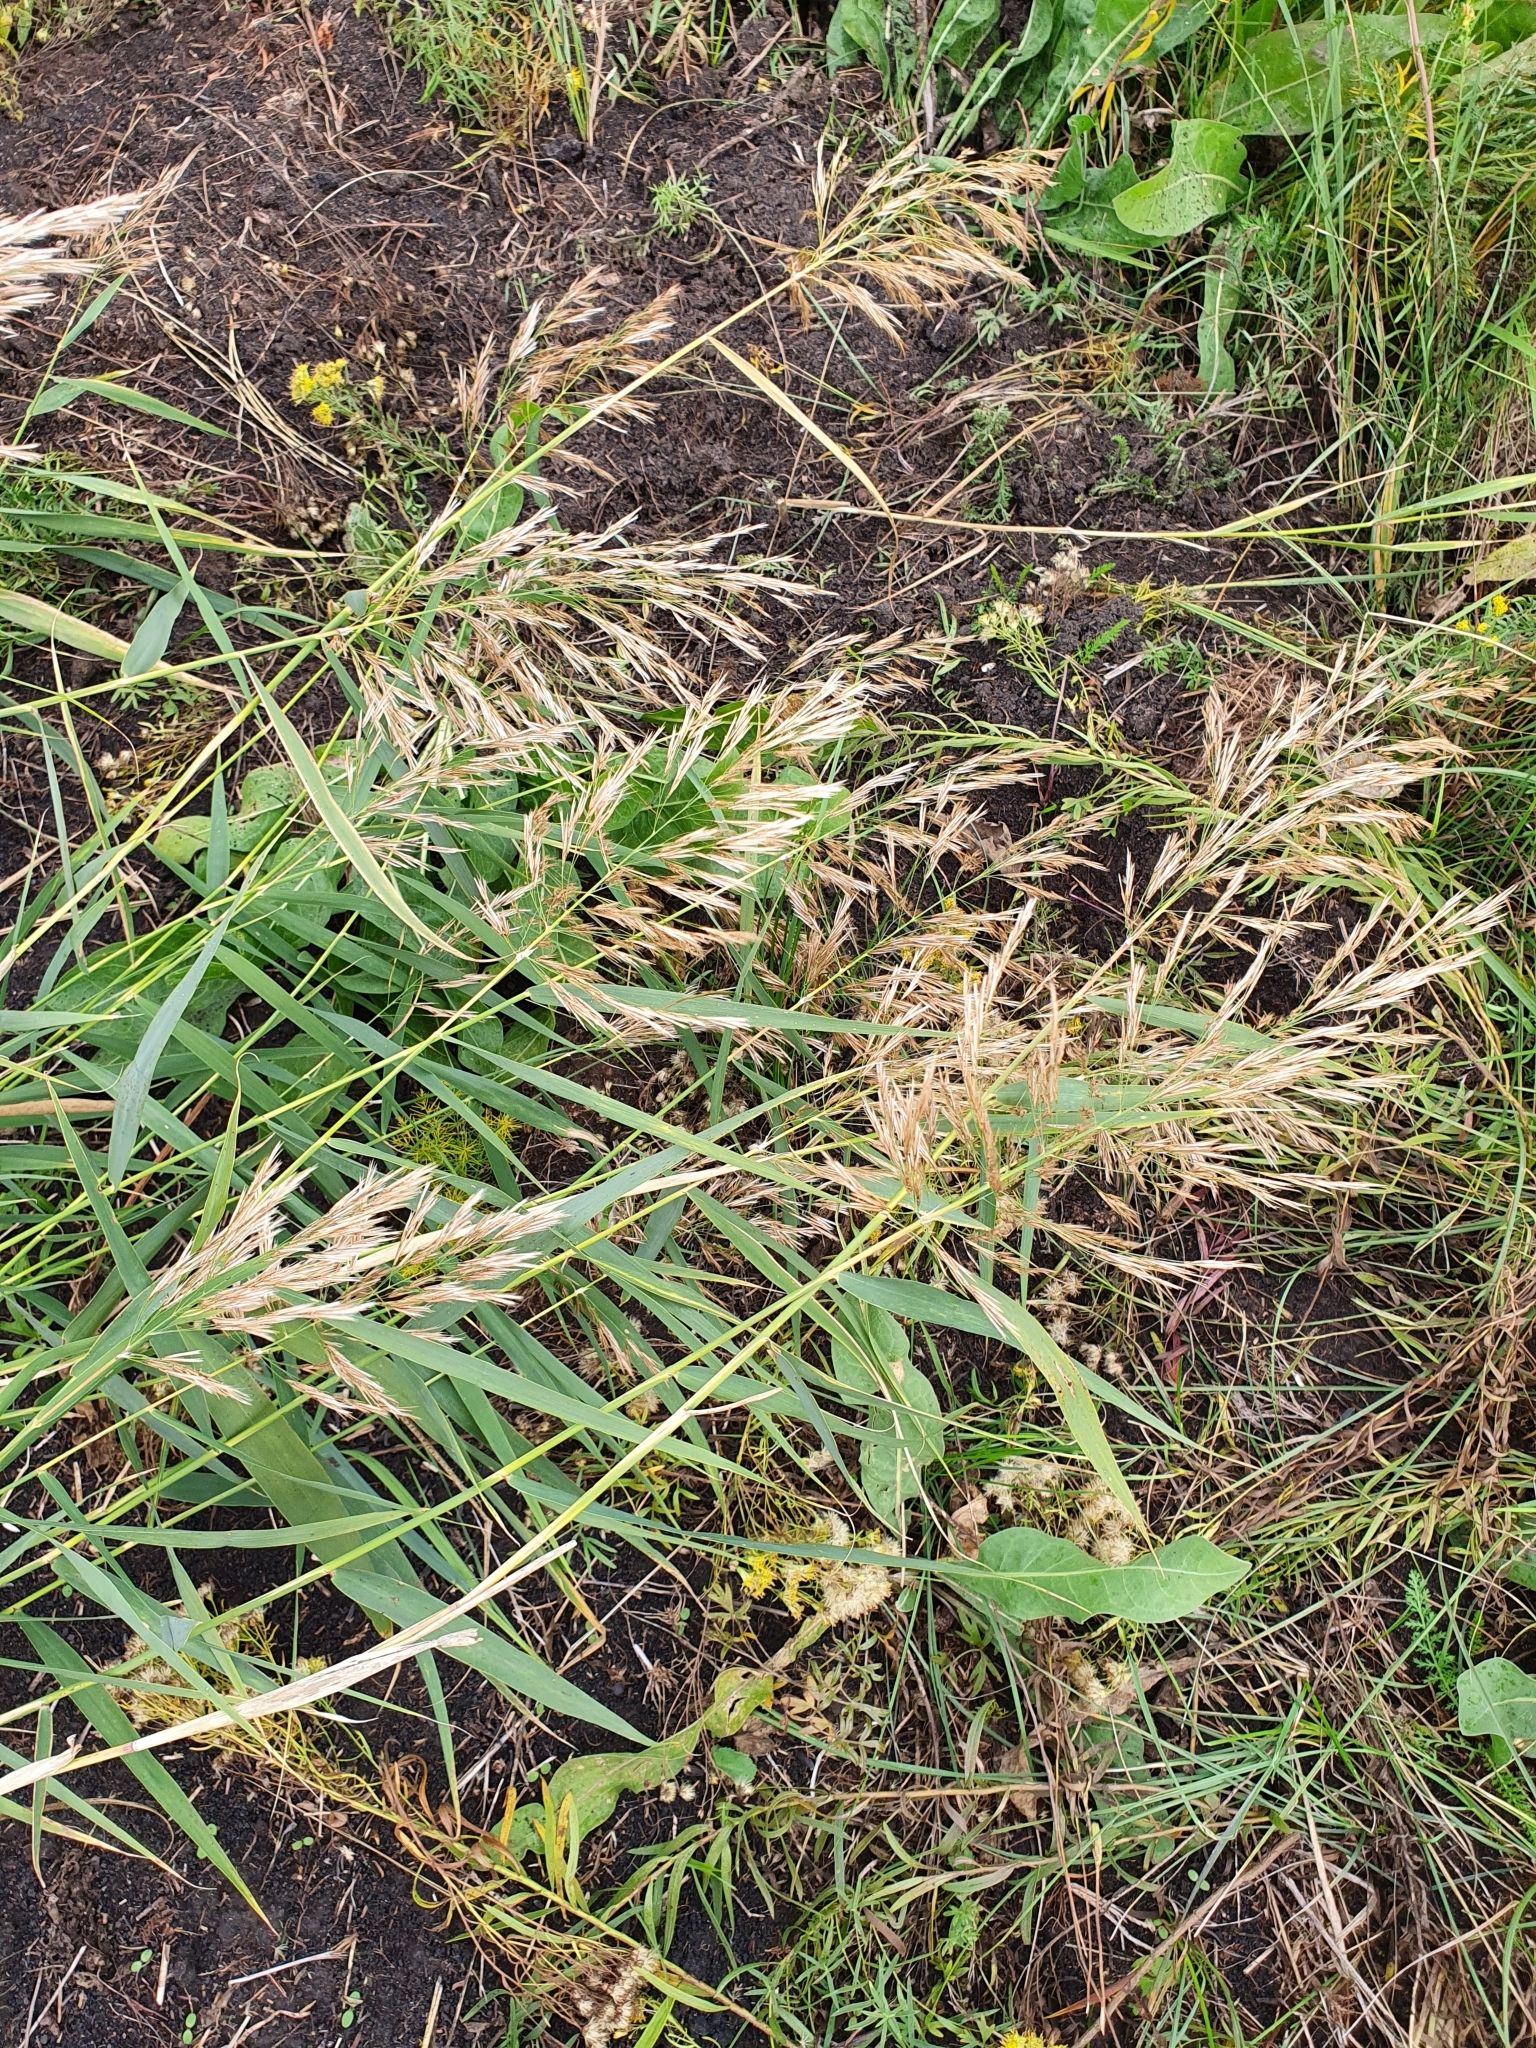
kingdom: Plantae
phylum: Tracheophyta
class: Liliopsida
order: Poales
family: Poaceae
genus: Phragmites
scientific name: Phragmites australis
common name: Common reed
